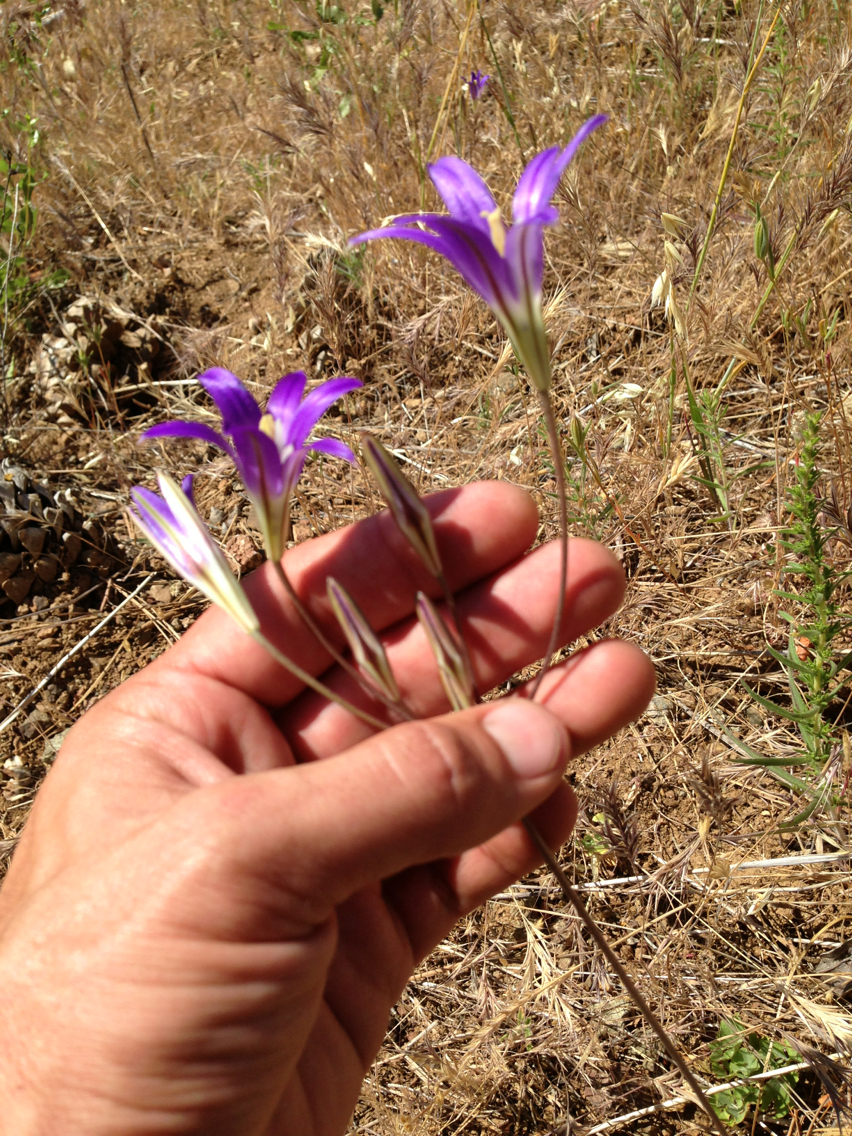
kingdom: Plantae
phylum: Tracheophyta
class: Liliopsida
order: Asparagales
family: Asparagaceae
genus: Brodiaea
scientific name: Brodiaea elegans
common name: Elegant cluster-lily
